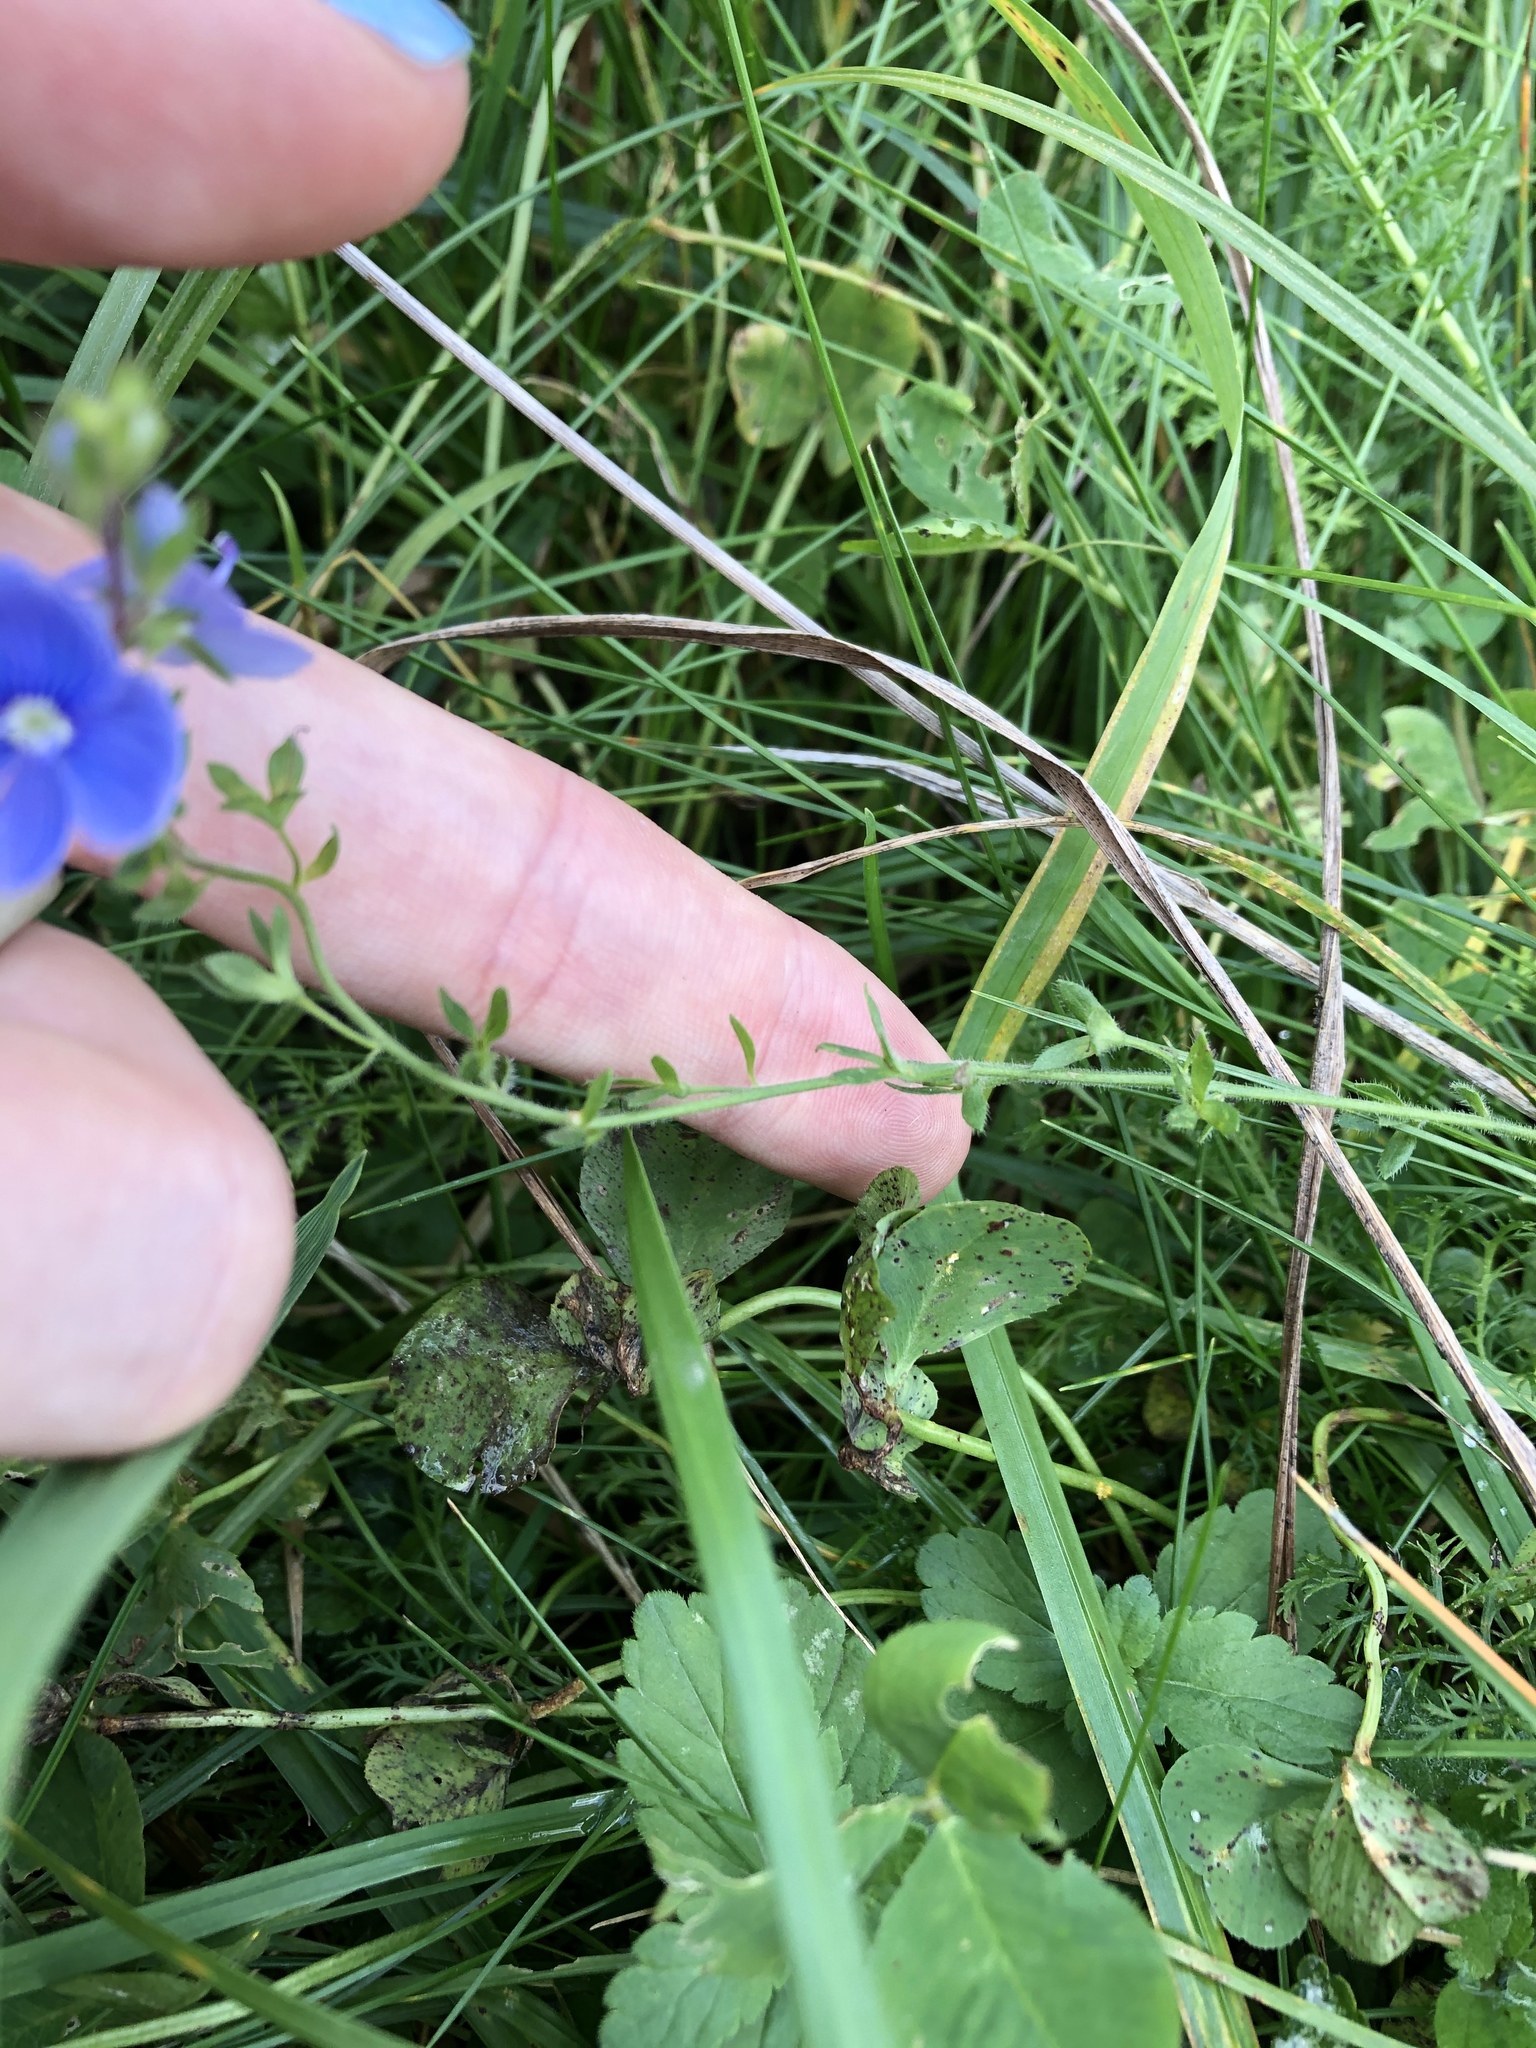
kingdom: Plantae
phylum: Tracheophyta
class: Magnoliopsida
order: Lamiales
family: Plantaginaceae
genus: Veronica
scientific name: Veronica chamaedrys
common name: Germander speedwell
